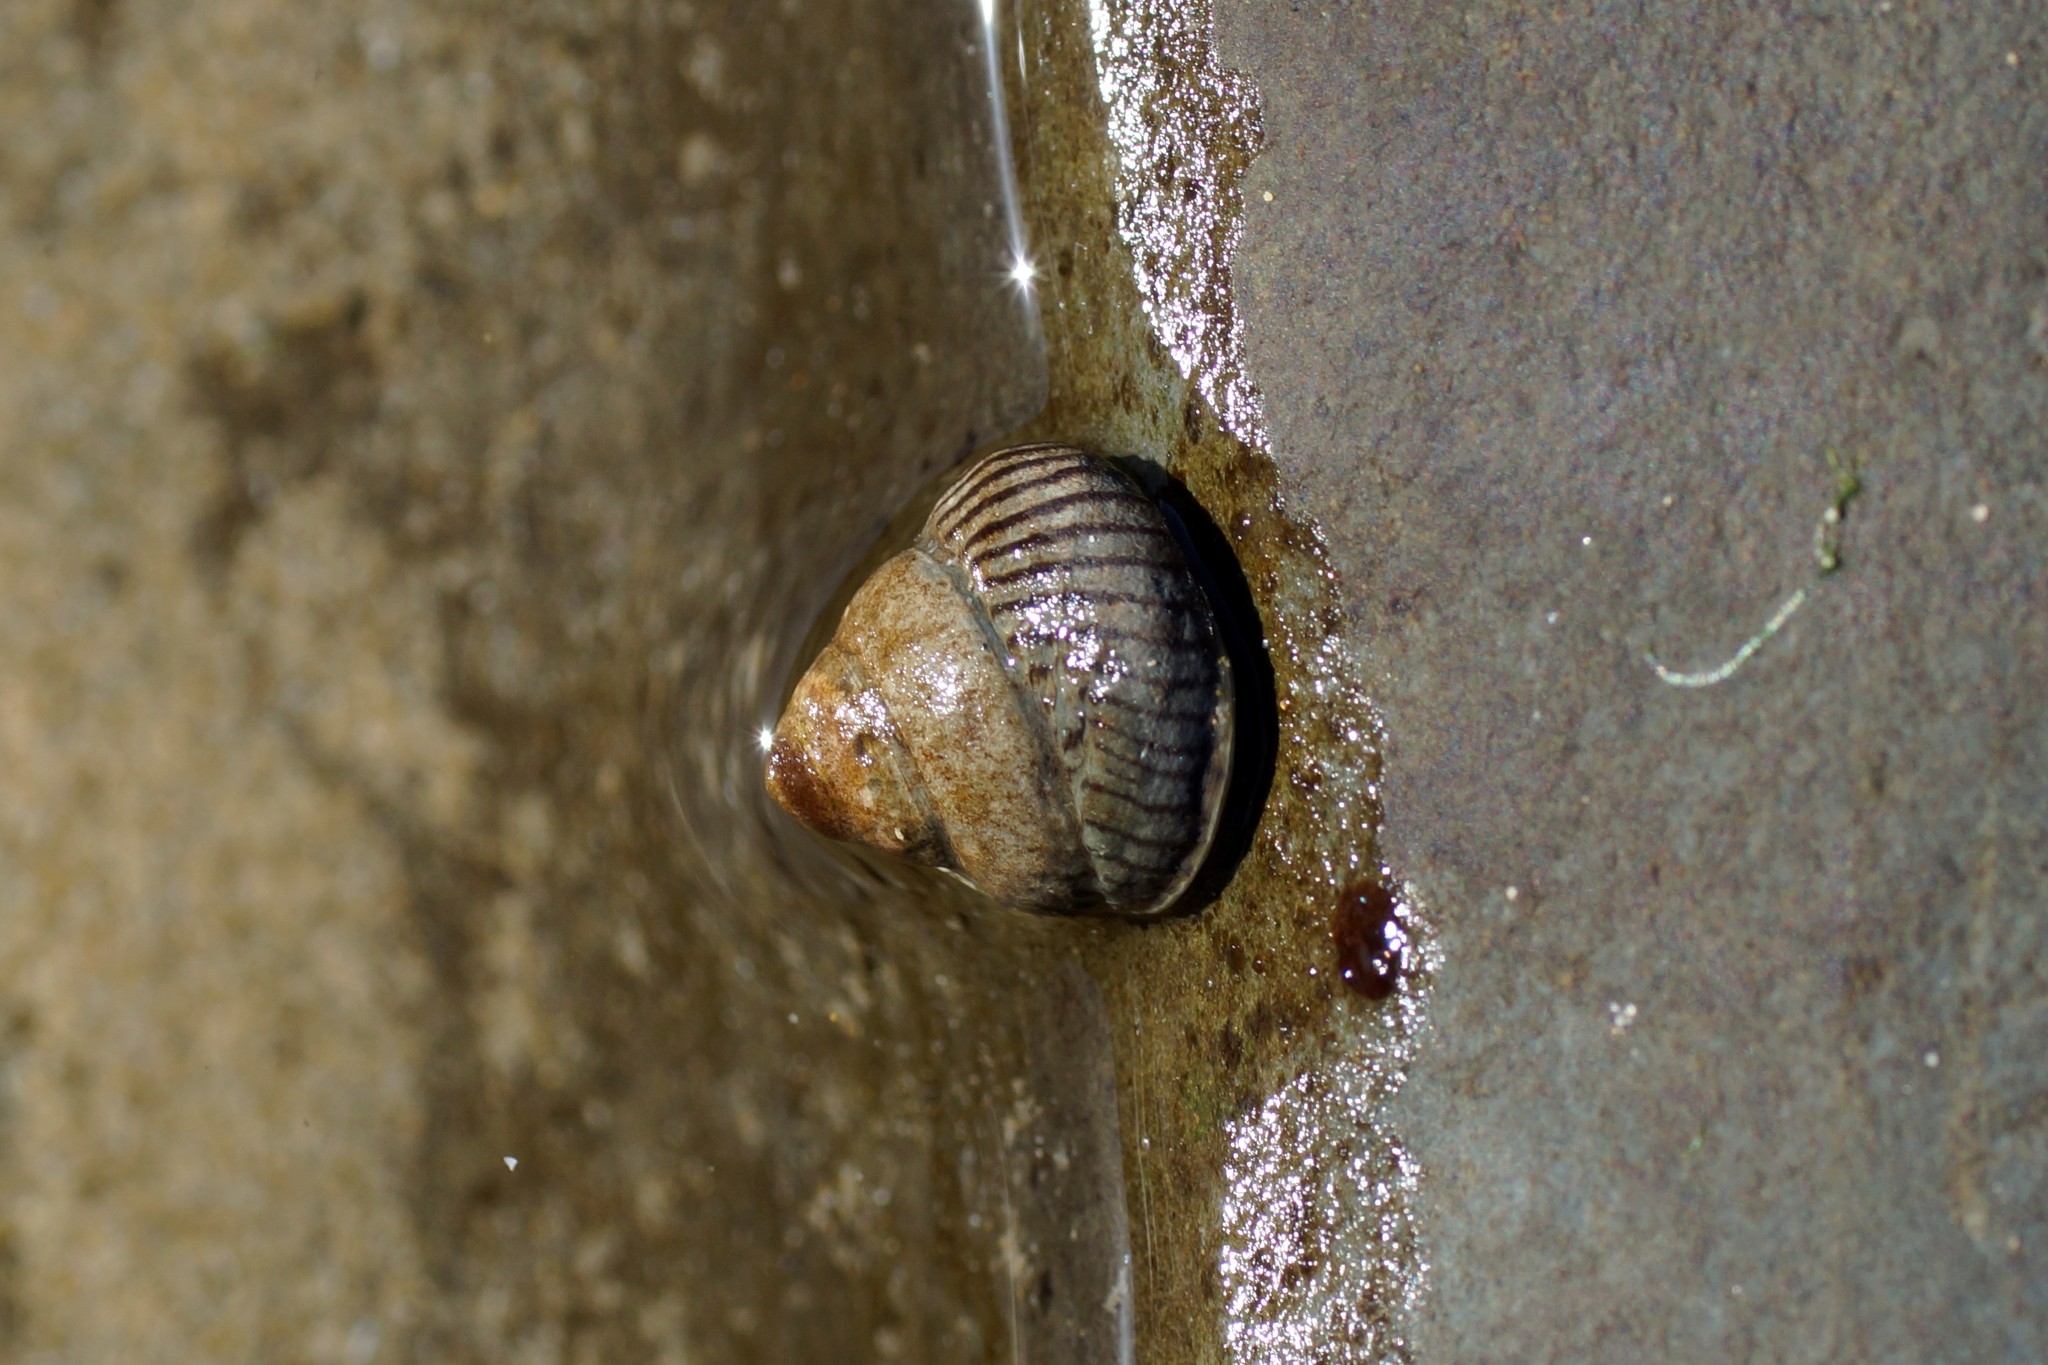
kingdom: Animalia
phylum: Mollusca
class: Gastropoda
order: Littorinimorpha
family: Littorinidae
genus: Bembicium
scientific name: Bembicium nanum
